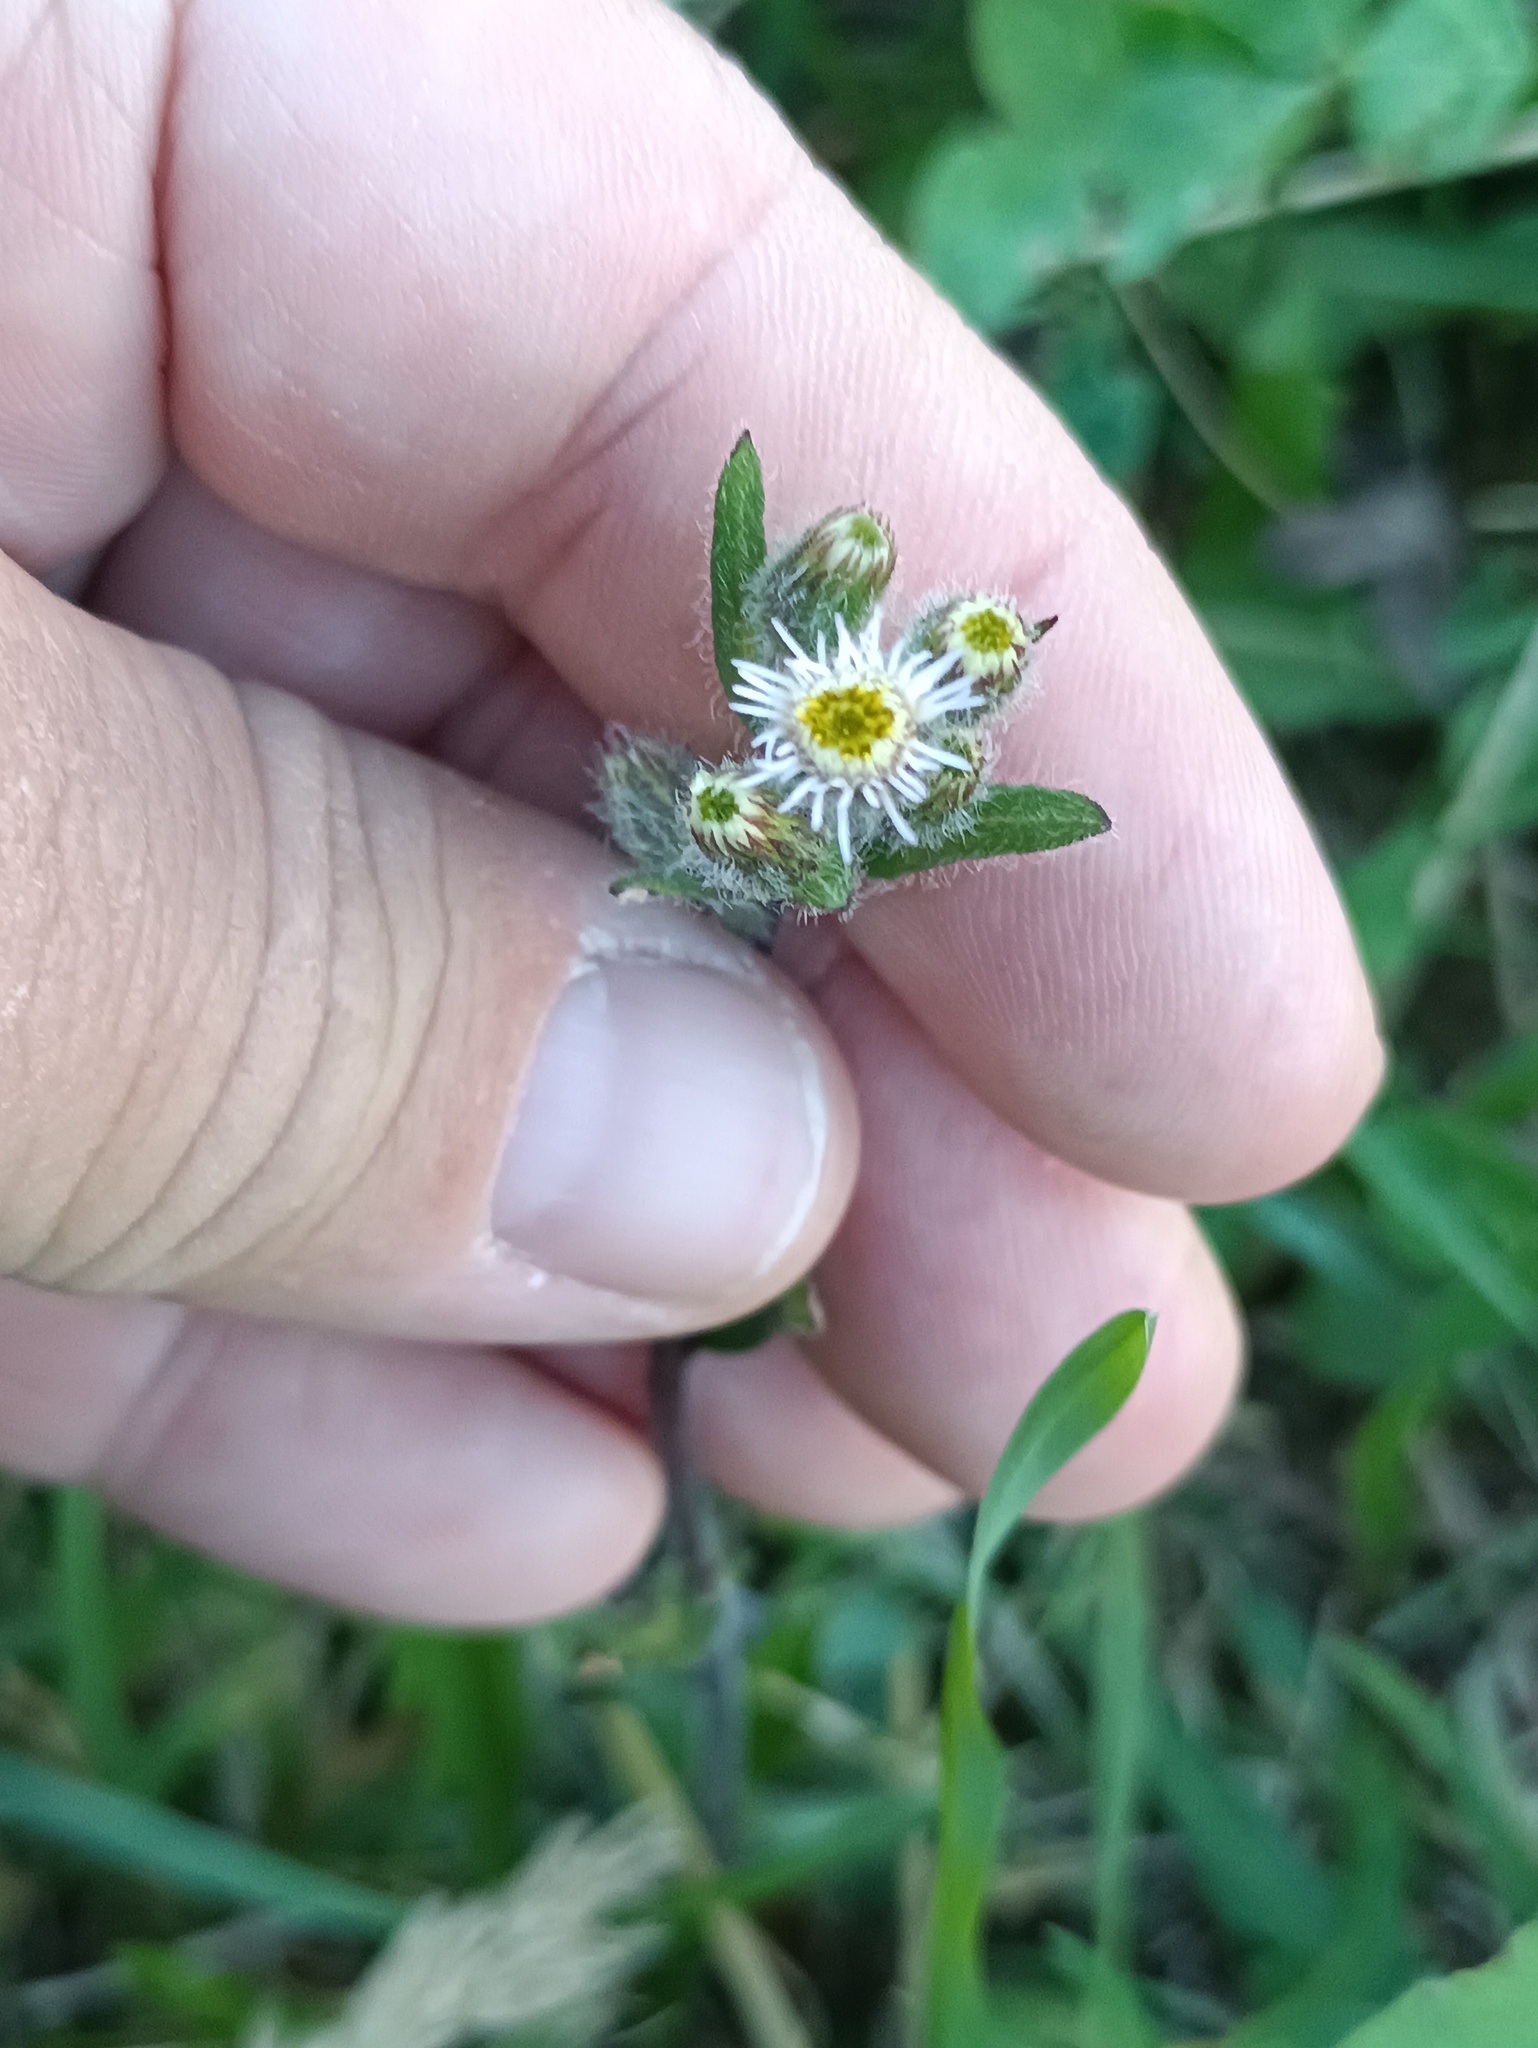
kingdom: Plantae
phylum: Tracheophyta
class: Magnoliopsida
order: Asterales
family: Asteraceae
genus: Erigeron
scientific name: Erigeron acris
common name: Blue fleabane
